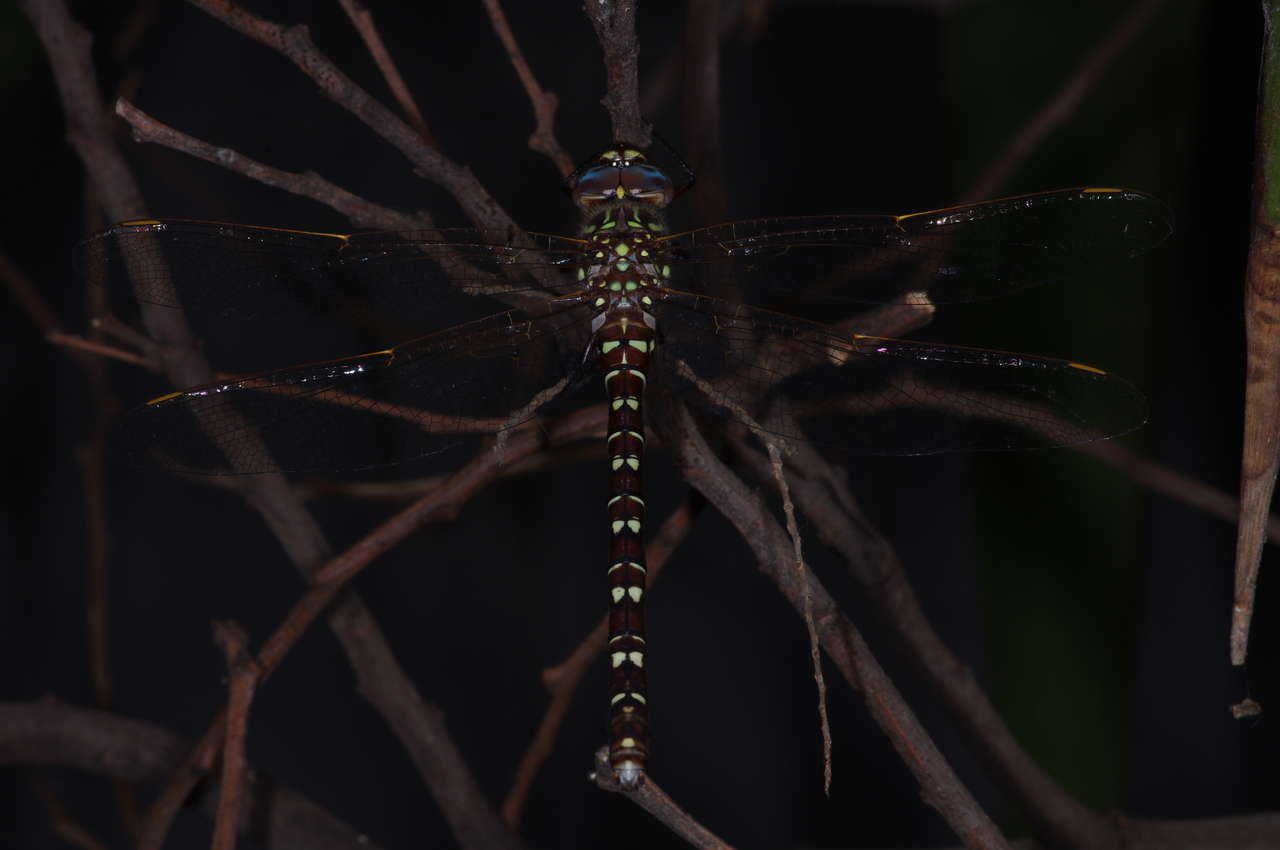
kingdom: Animalia
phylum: Arthropoda
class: Insecta
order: Odonata
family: Aeshnidae
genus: Austroaeschna
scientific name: Austroaeschna unicornis
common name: Unicorn darner
